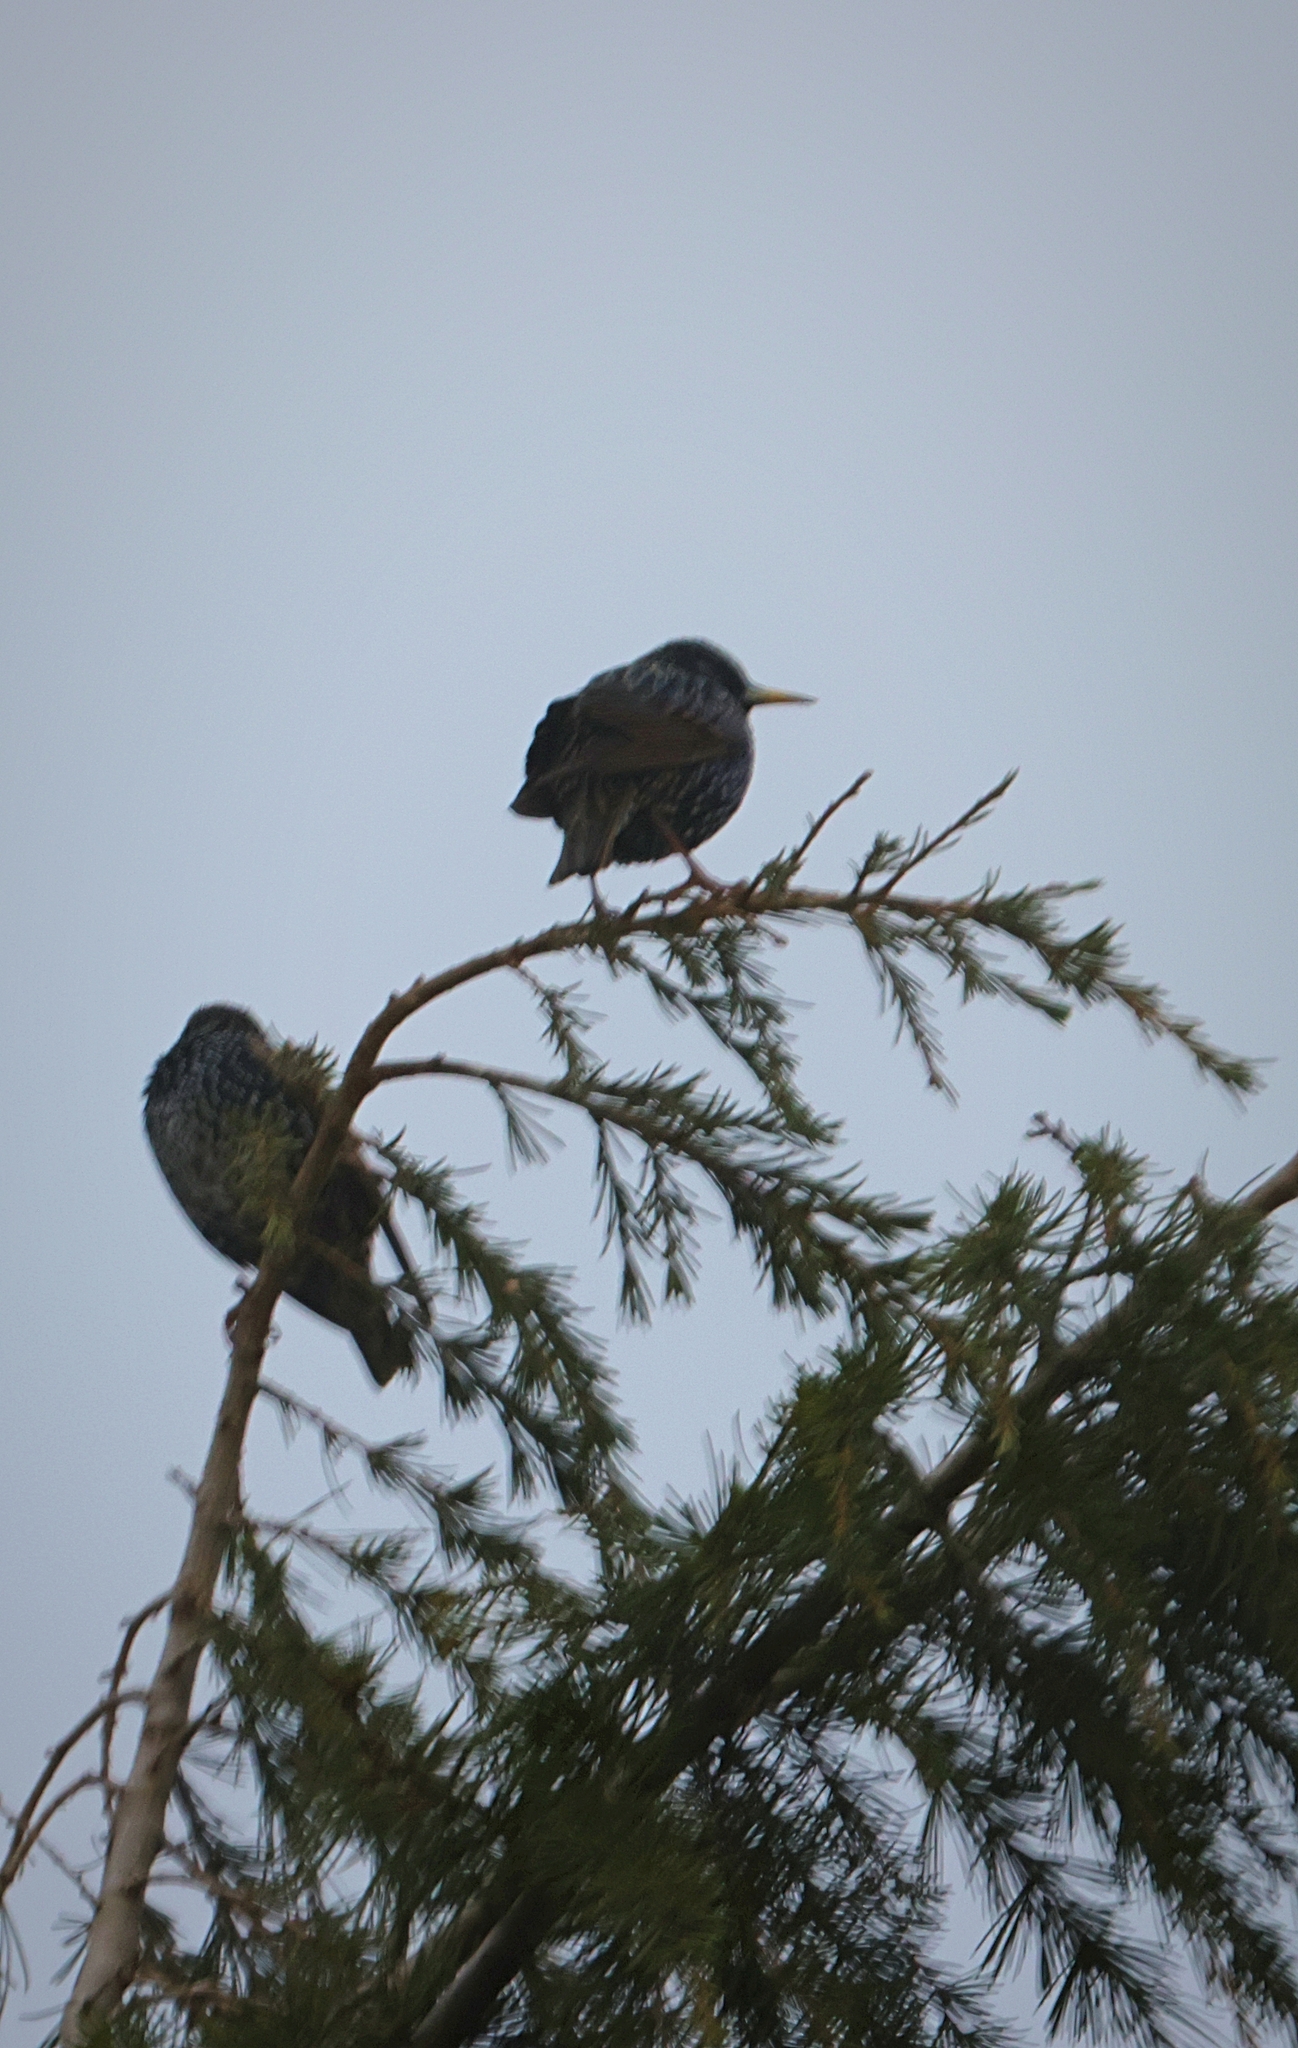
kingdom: Animalia
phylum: Chordata
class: Aves
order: Passeriformes
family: Sturnidae
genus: Sturnus
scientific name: Sturnus vulgaris
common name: Common starling
